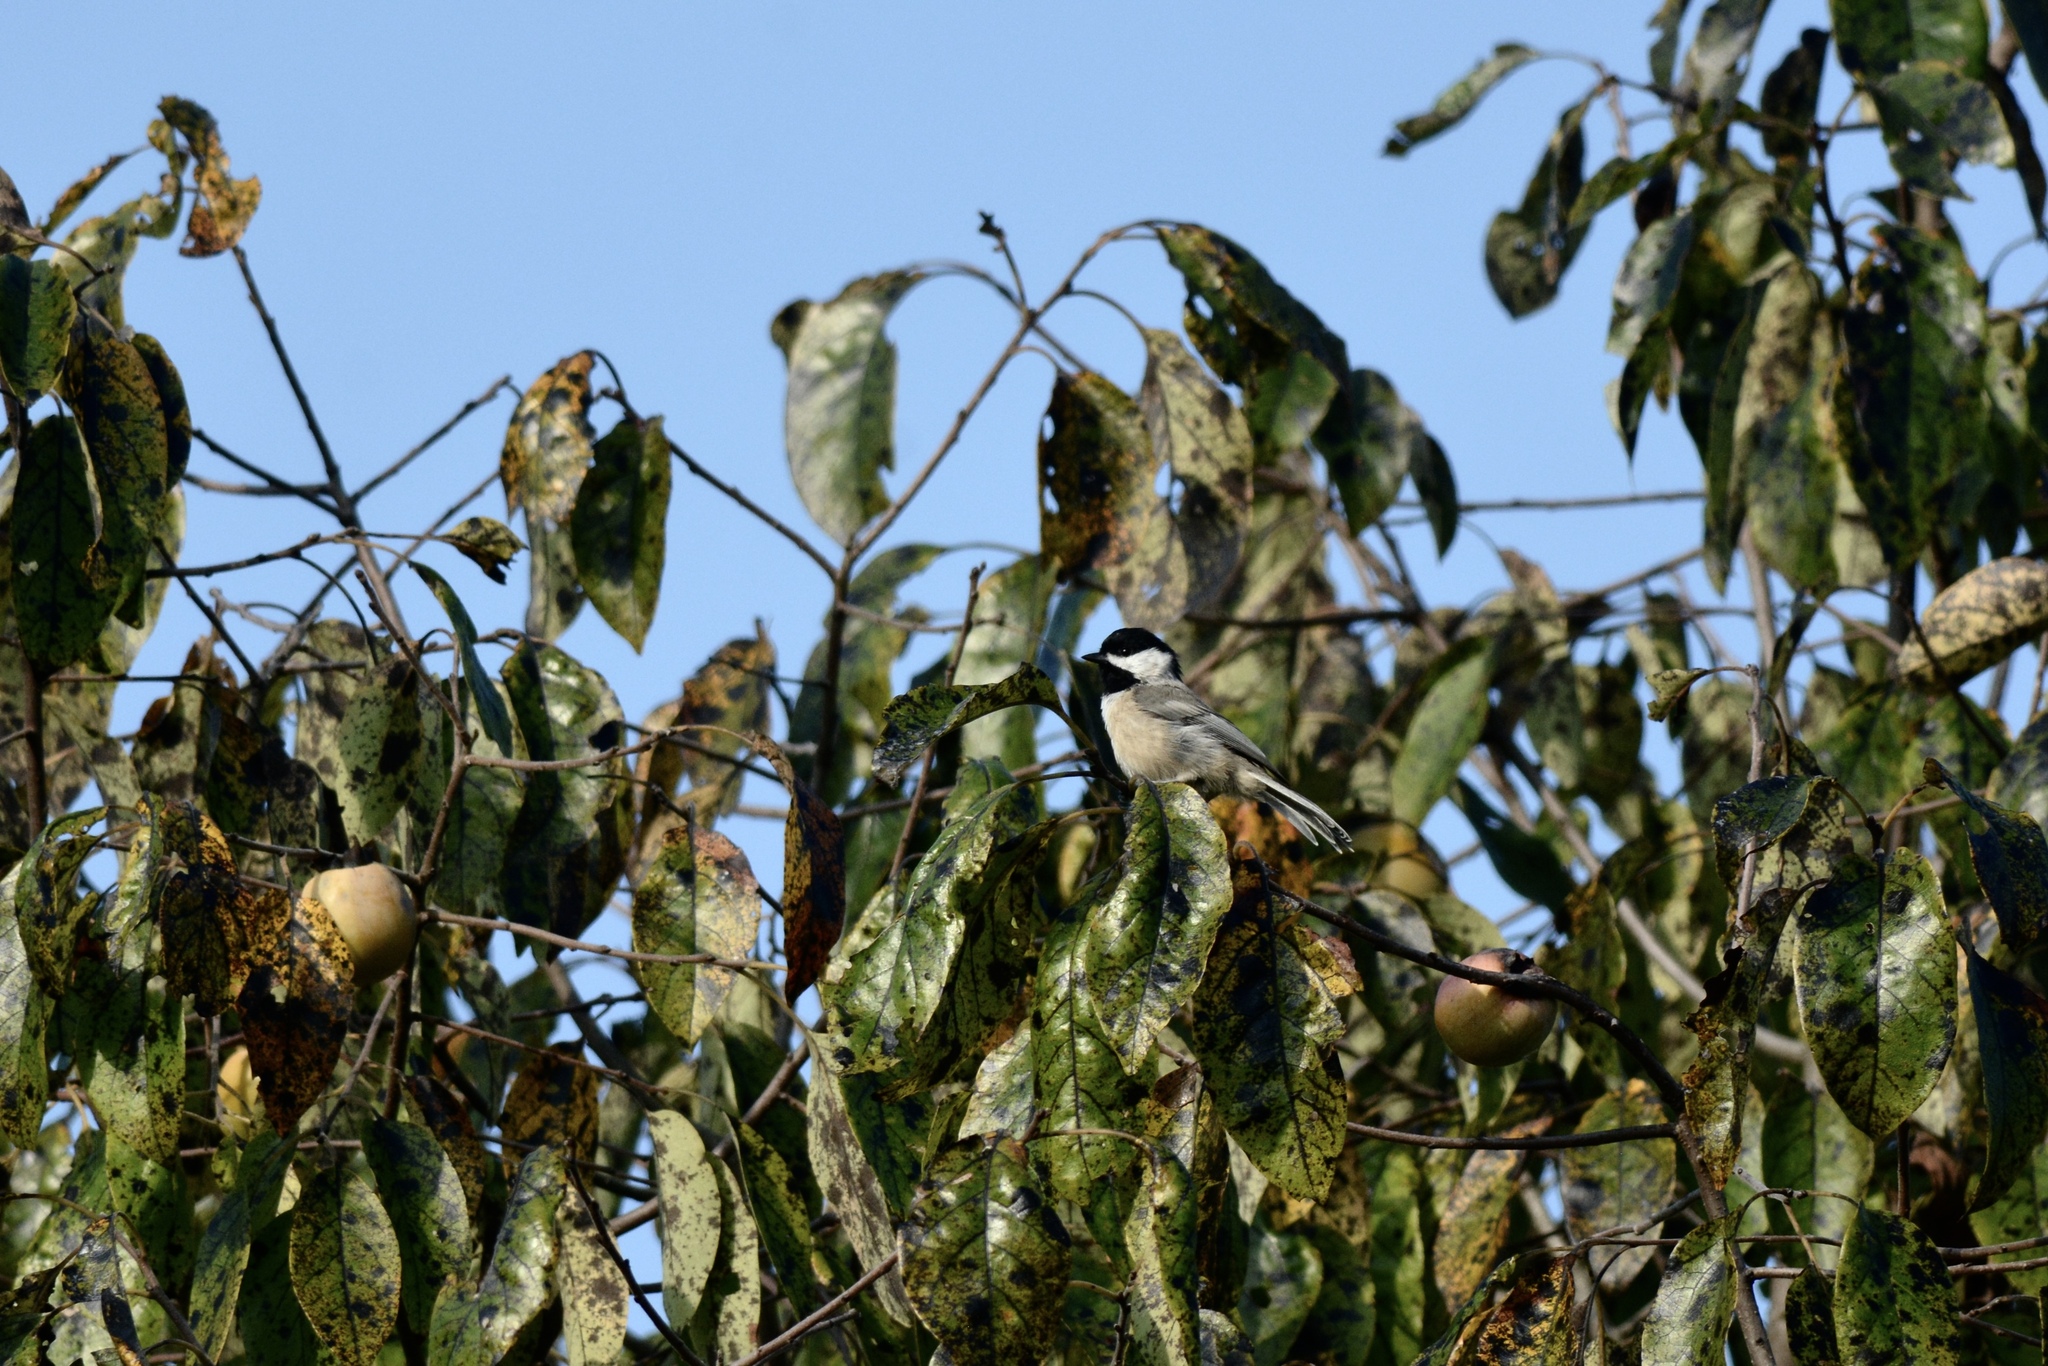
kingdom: Animalia
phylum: Chordata
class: Aves
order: Passeriformes
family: Paridae
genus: Poecile
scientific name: Poecile carolinensis
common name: Carolina chickadee
